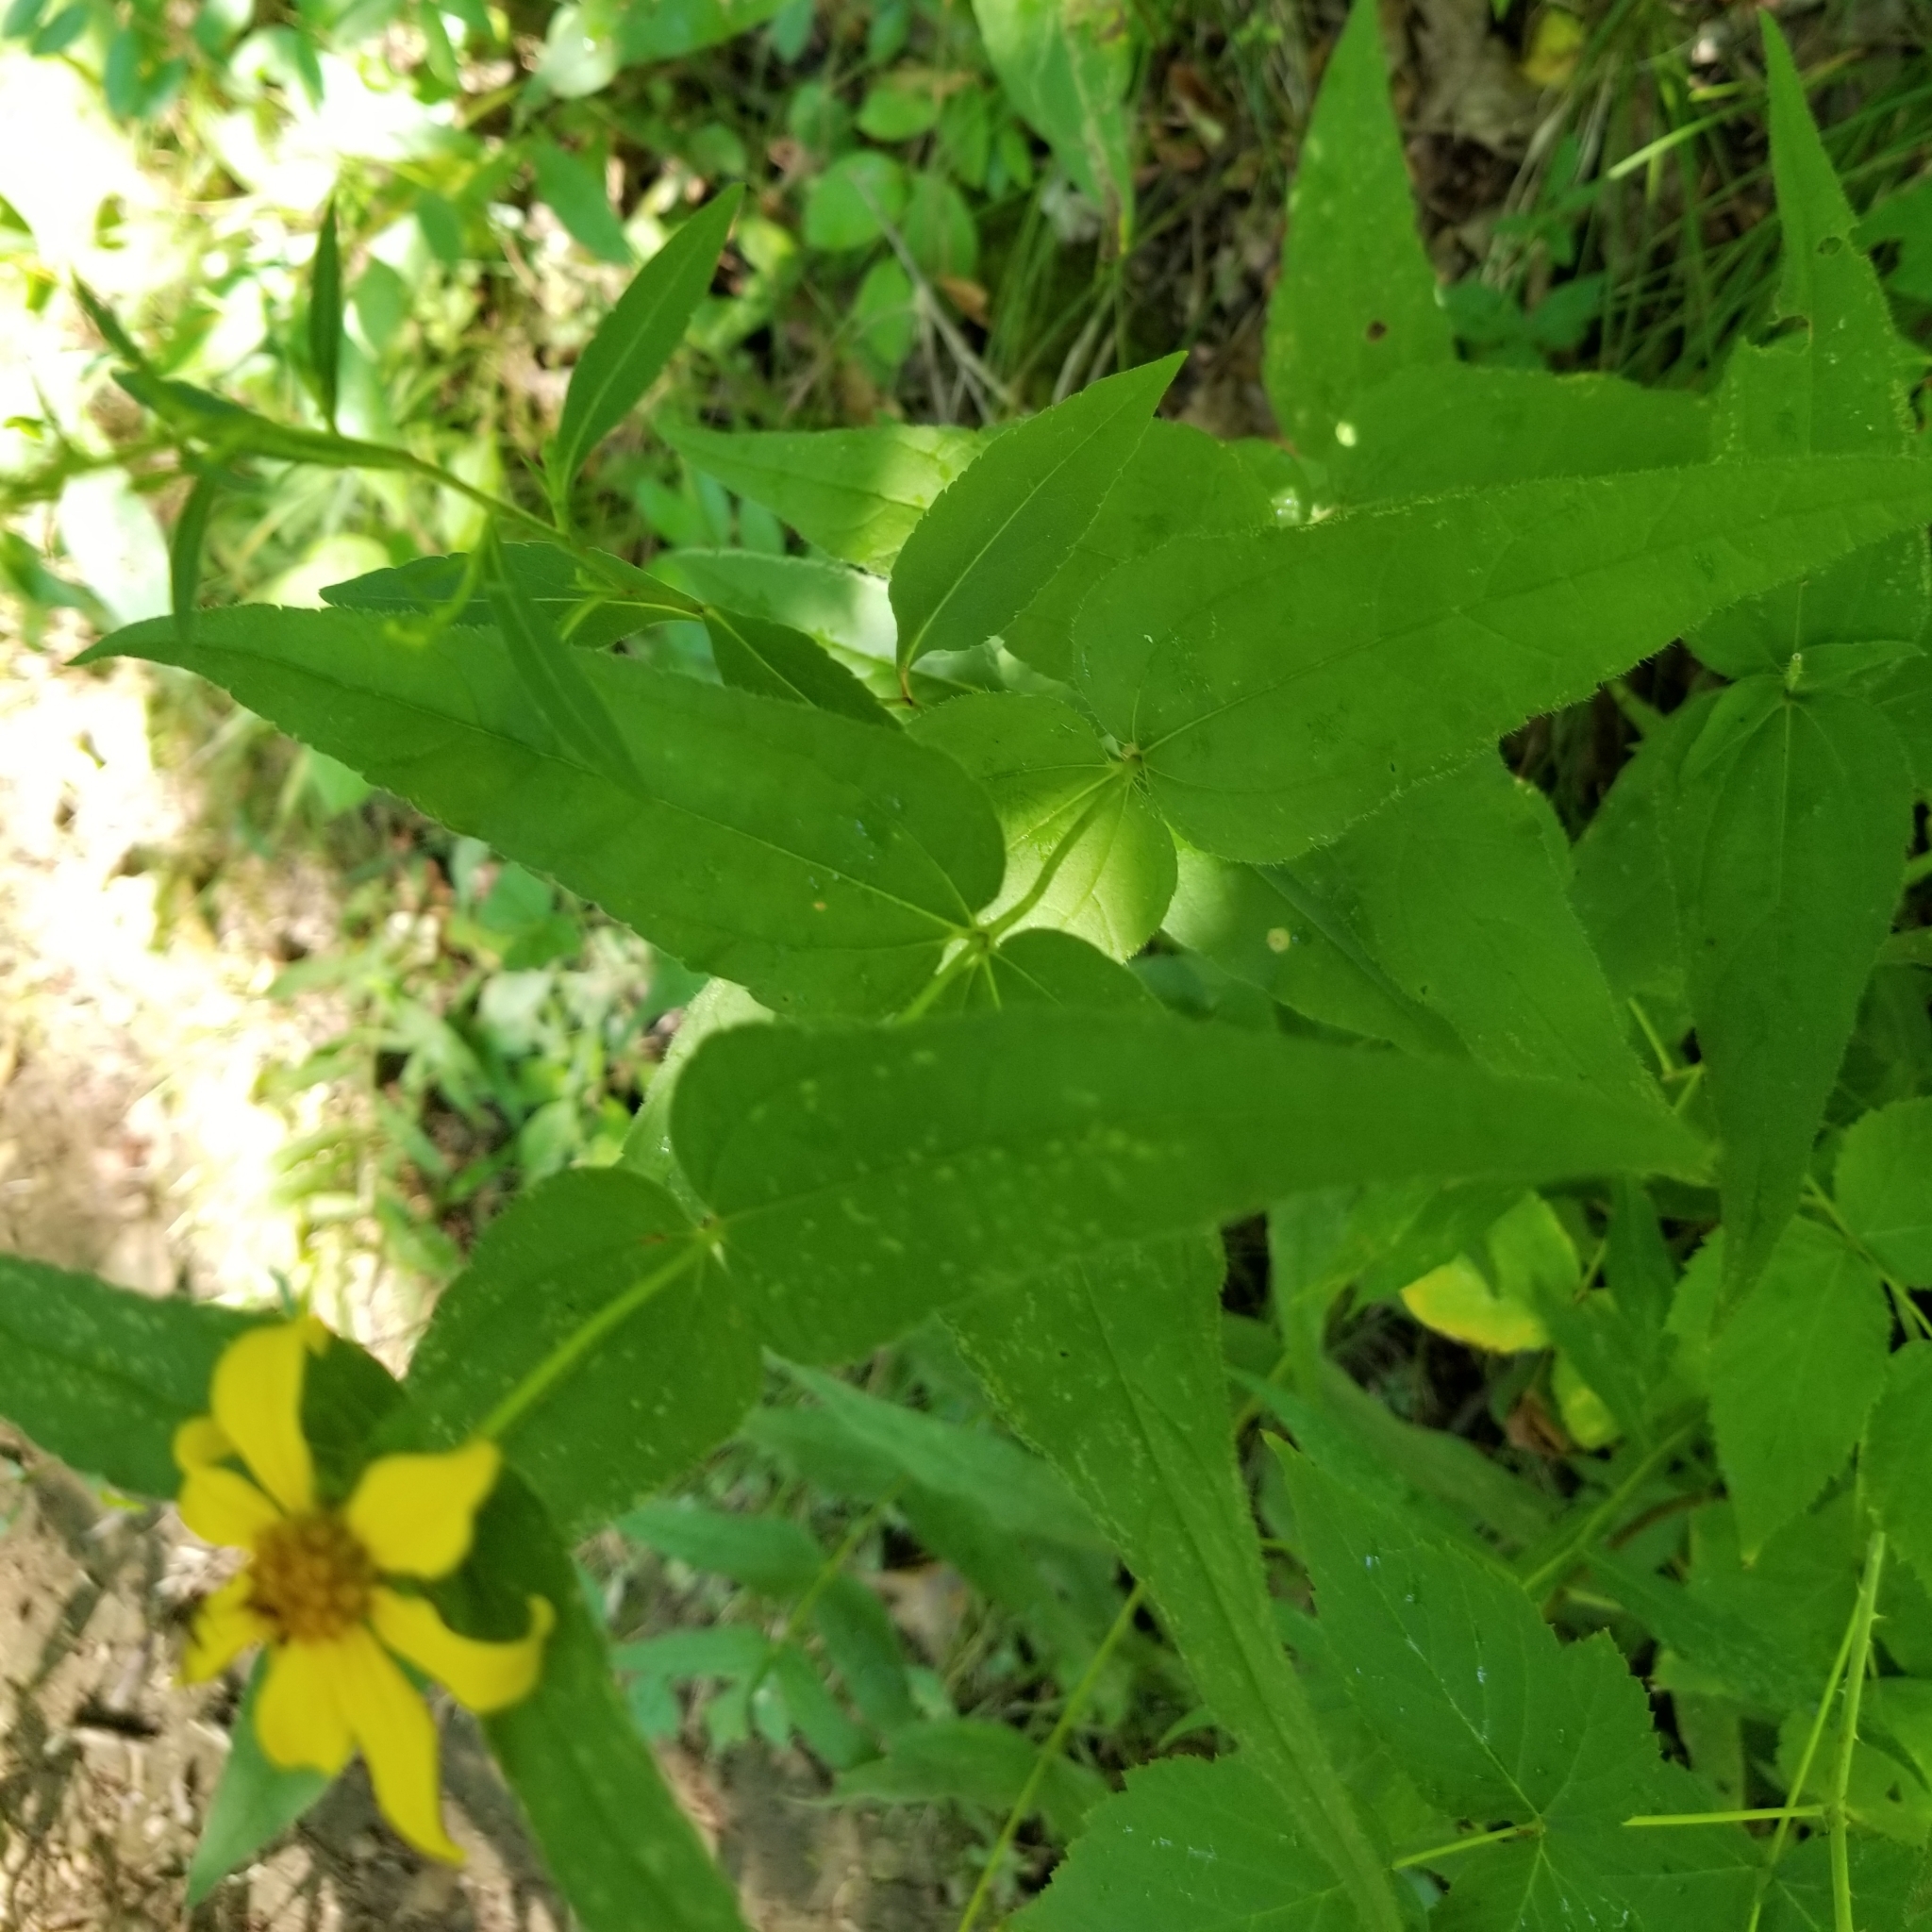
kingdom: Plantae
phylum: Tracheophyta
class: Magnoliopsida
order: Asterales
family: Asteraceae
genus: Helianthus
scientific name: Helianthus divaricatus
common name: Divergent sunflower
